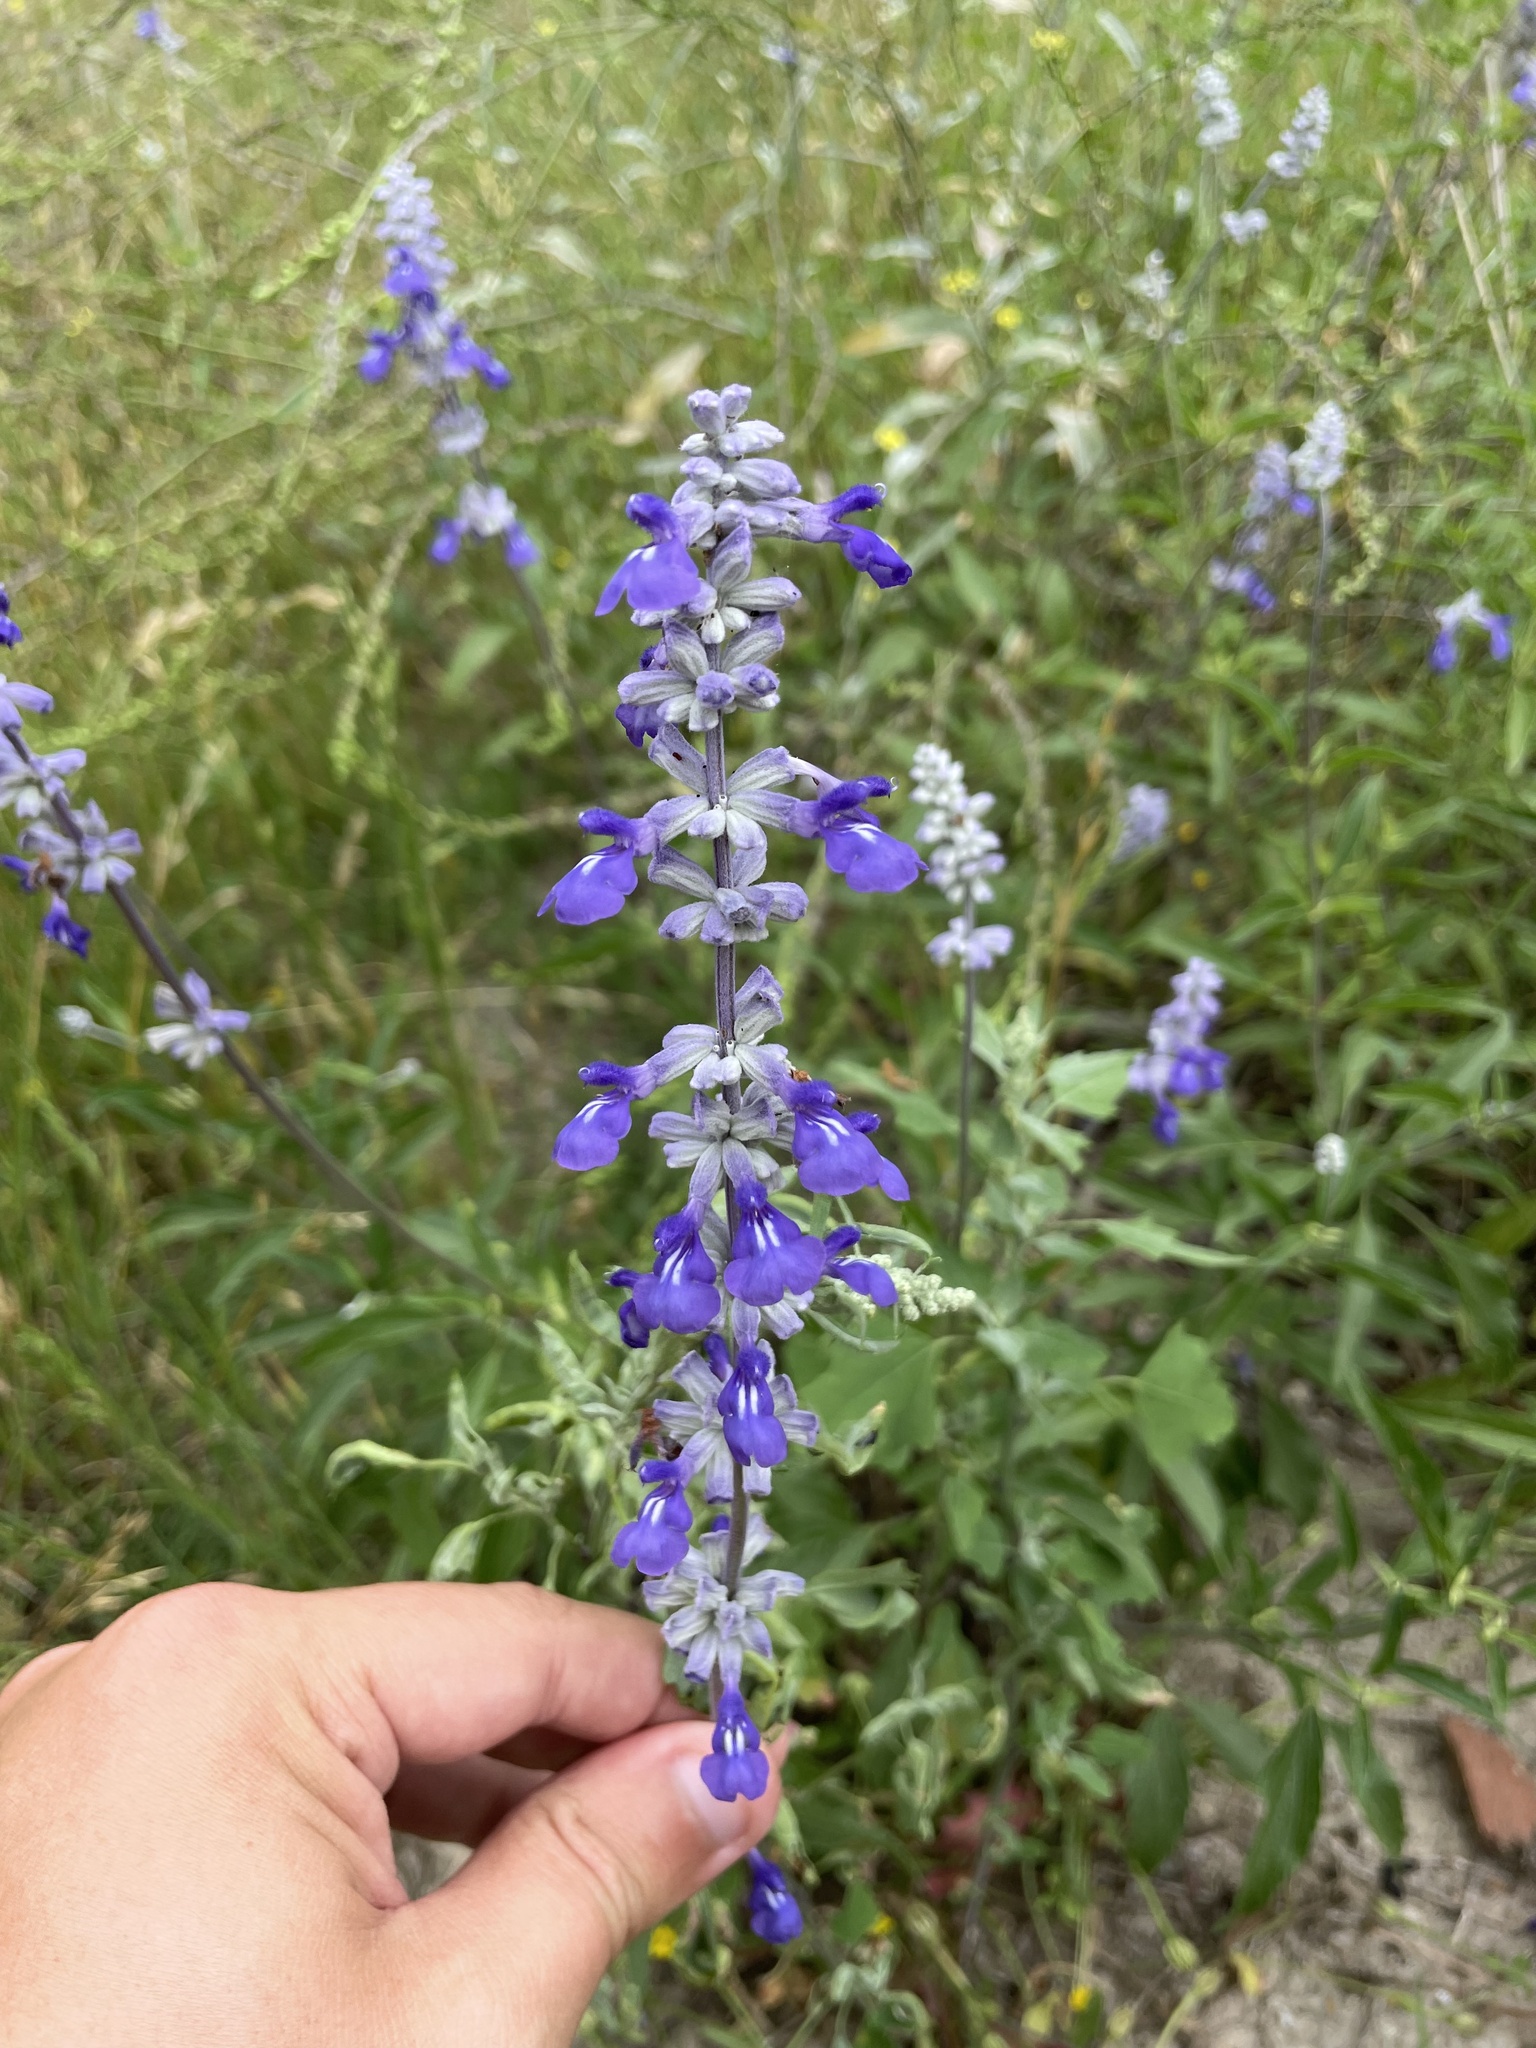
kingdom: Plantae
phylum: Tracheophyta
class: Magnoliopsida
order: Lamiales
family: Lamiaceae
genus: Salvia
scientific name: Salvia farinacea
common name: Mealy sage
